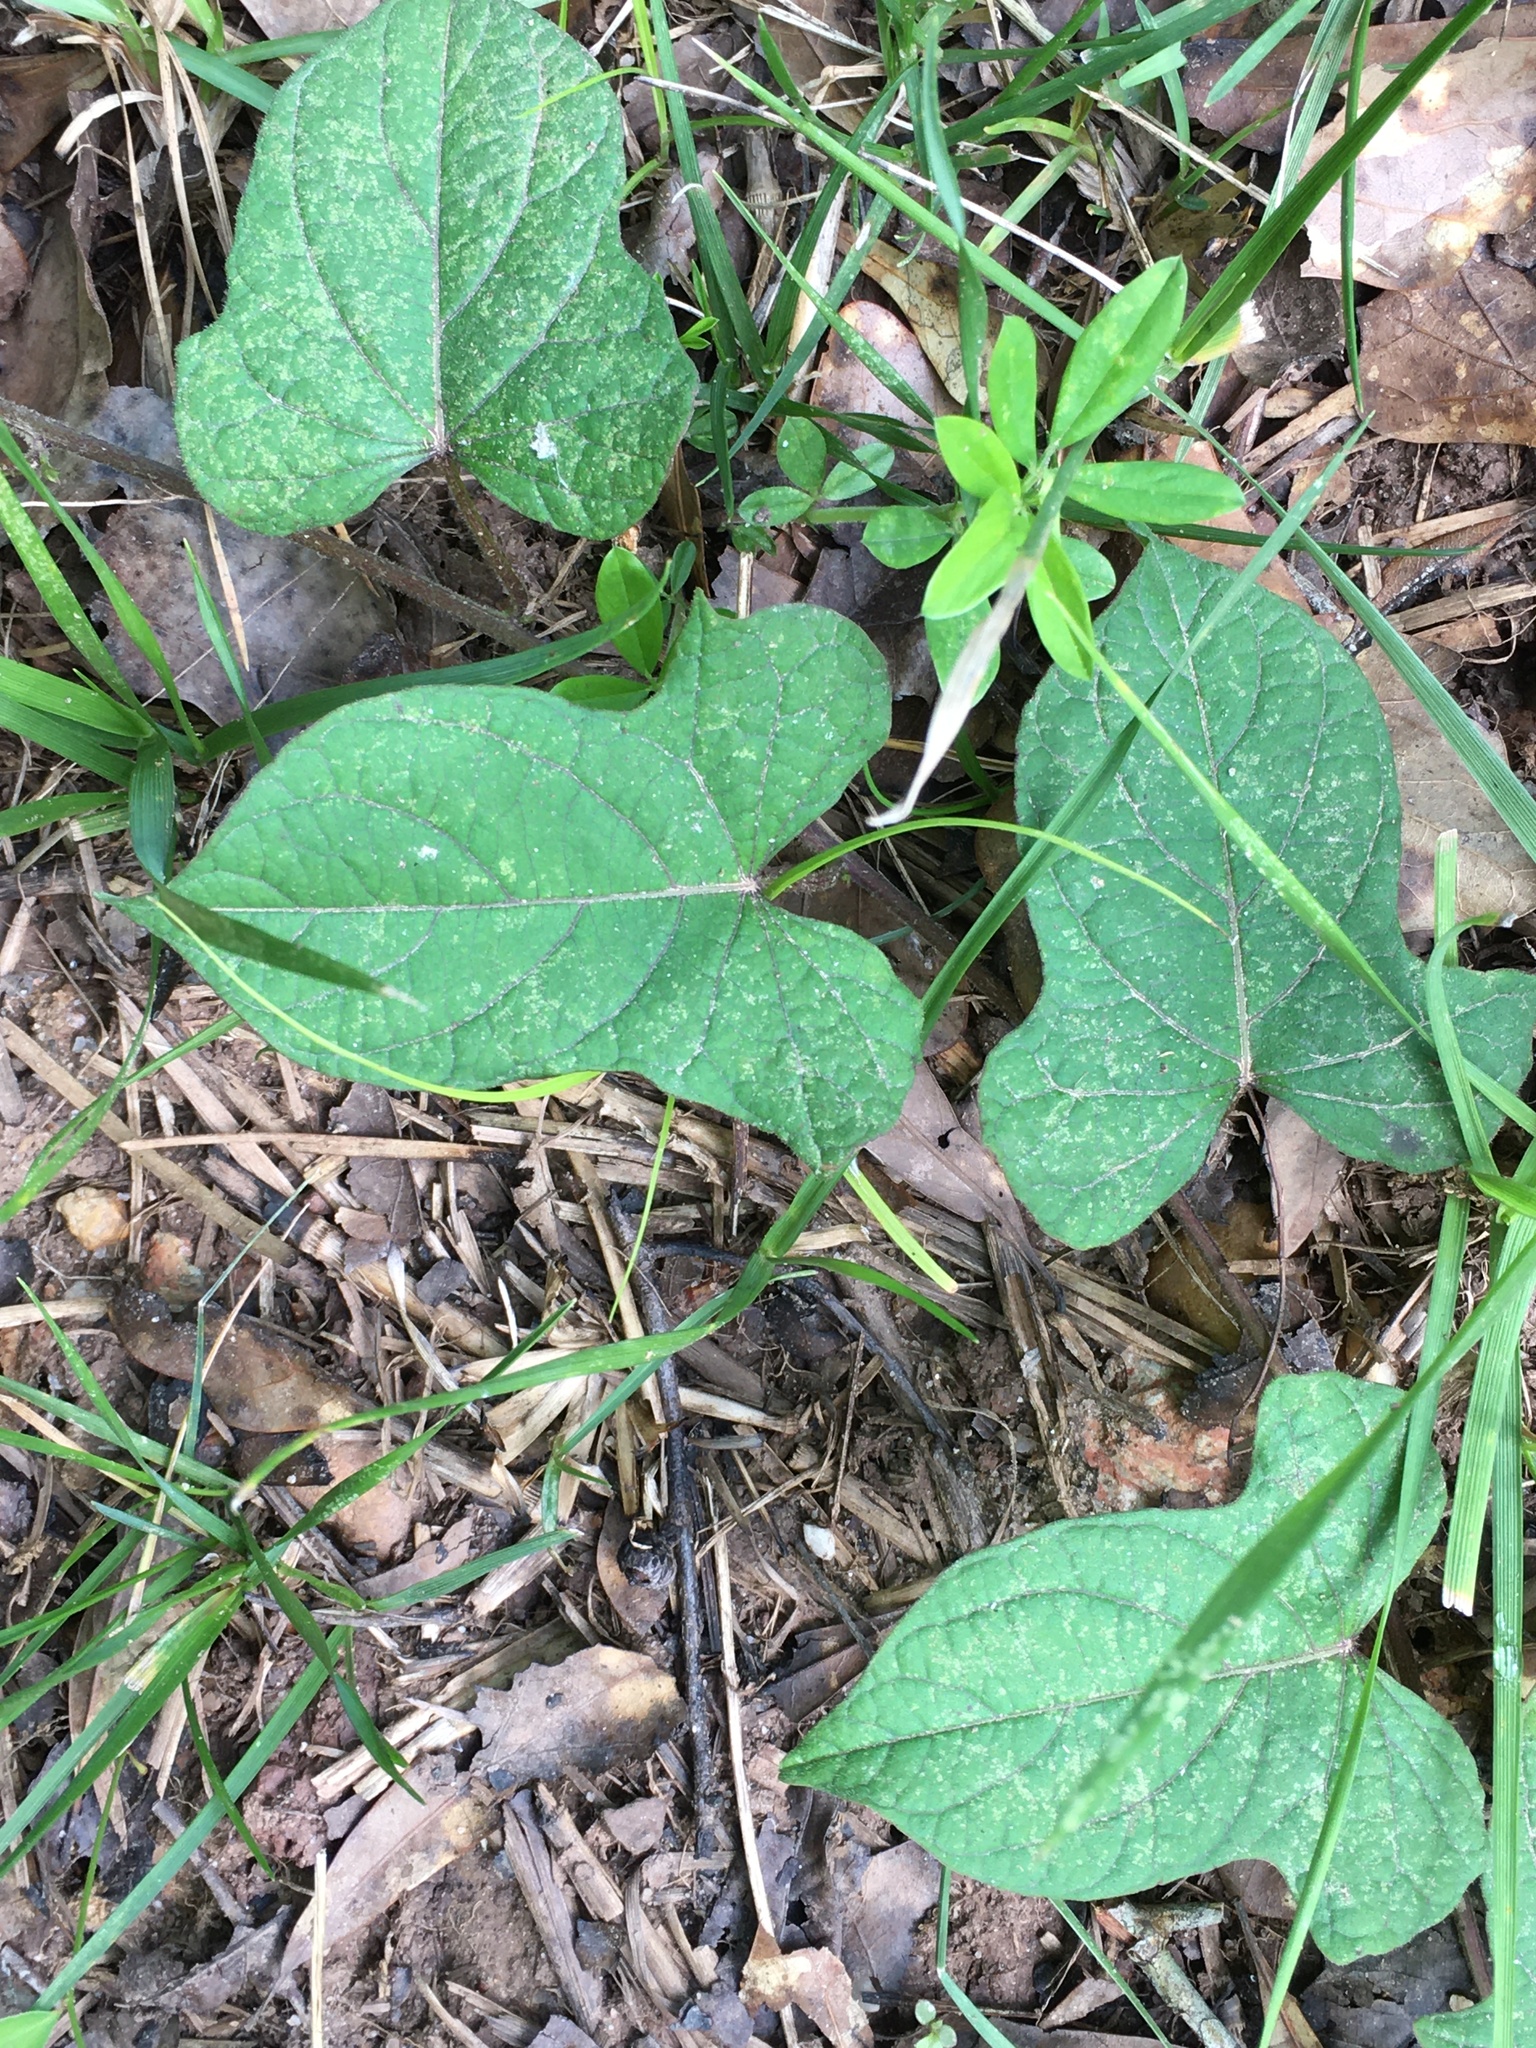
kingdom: Plantae
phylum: Tracheophyta
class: Magnoliopsida
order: Solanales
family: Convolvulaceae
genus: Ipomoea
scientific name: Ipomoea pandurata
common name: Man-of-the-earth
